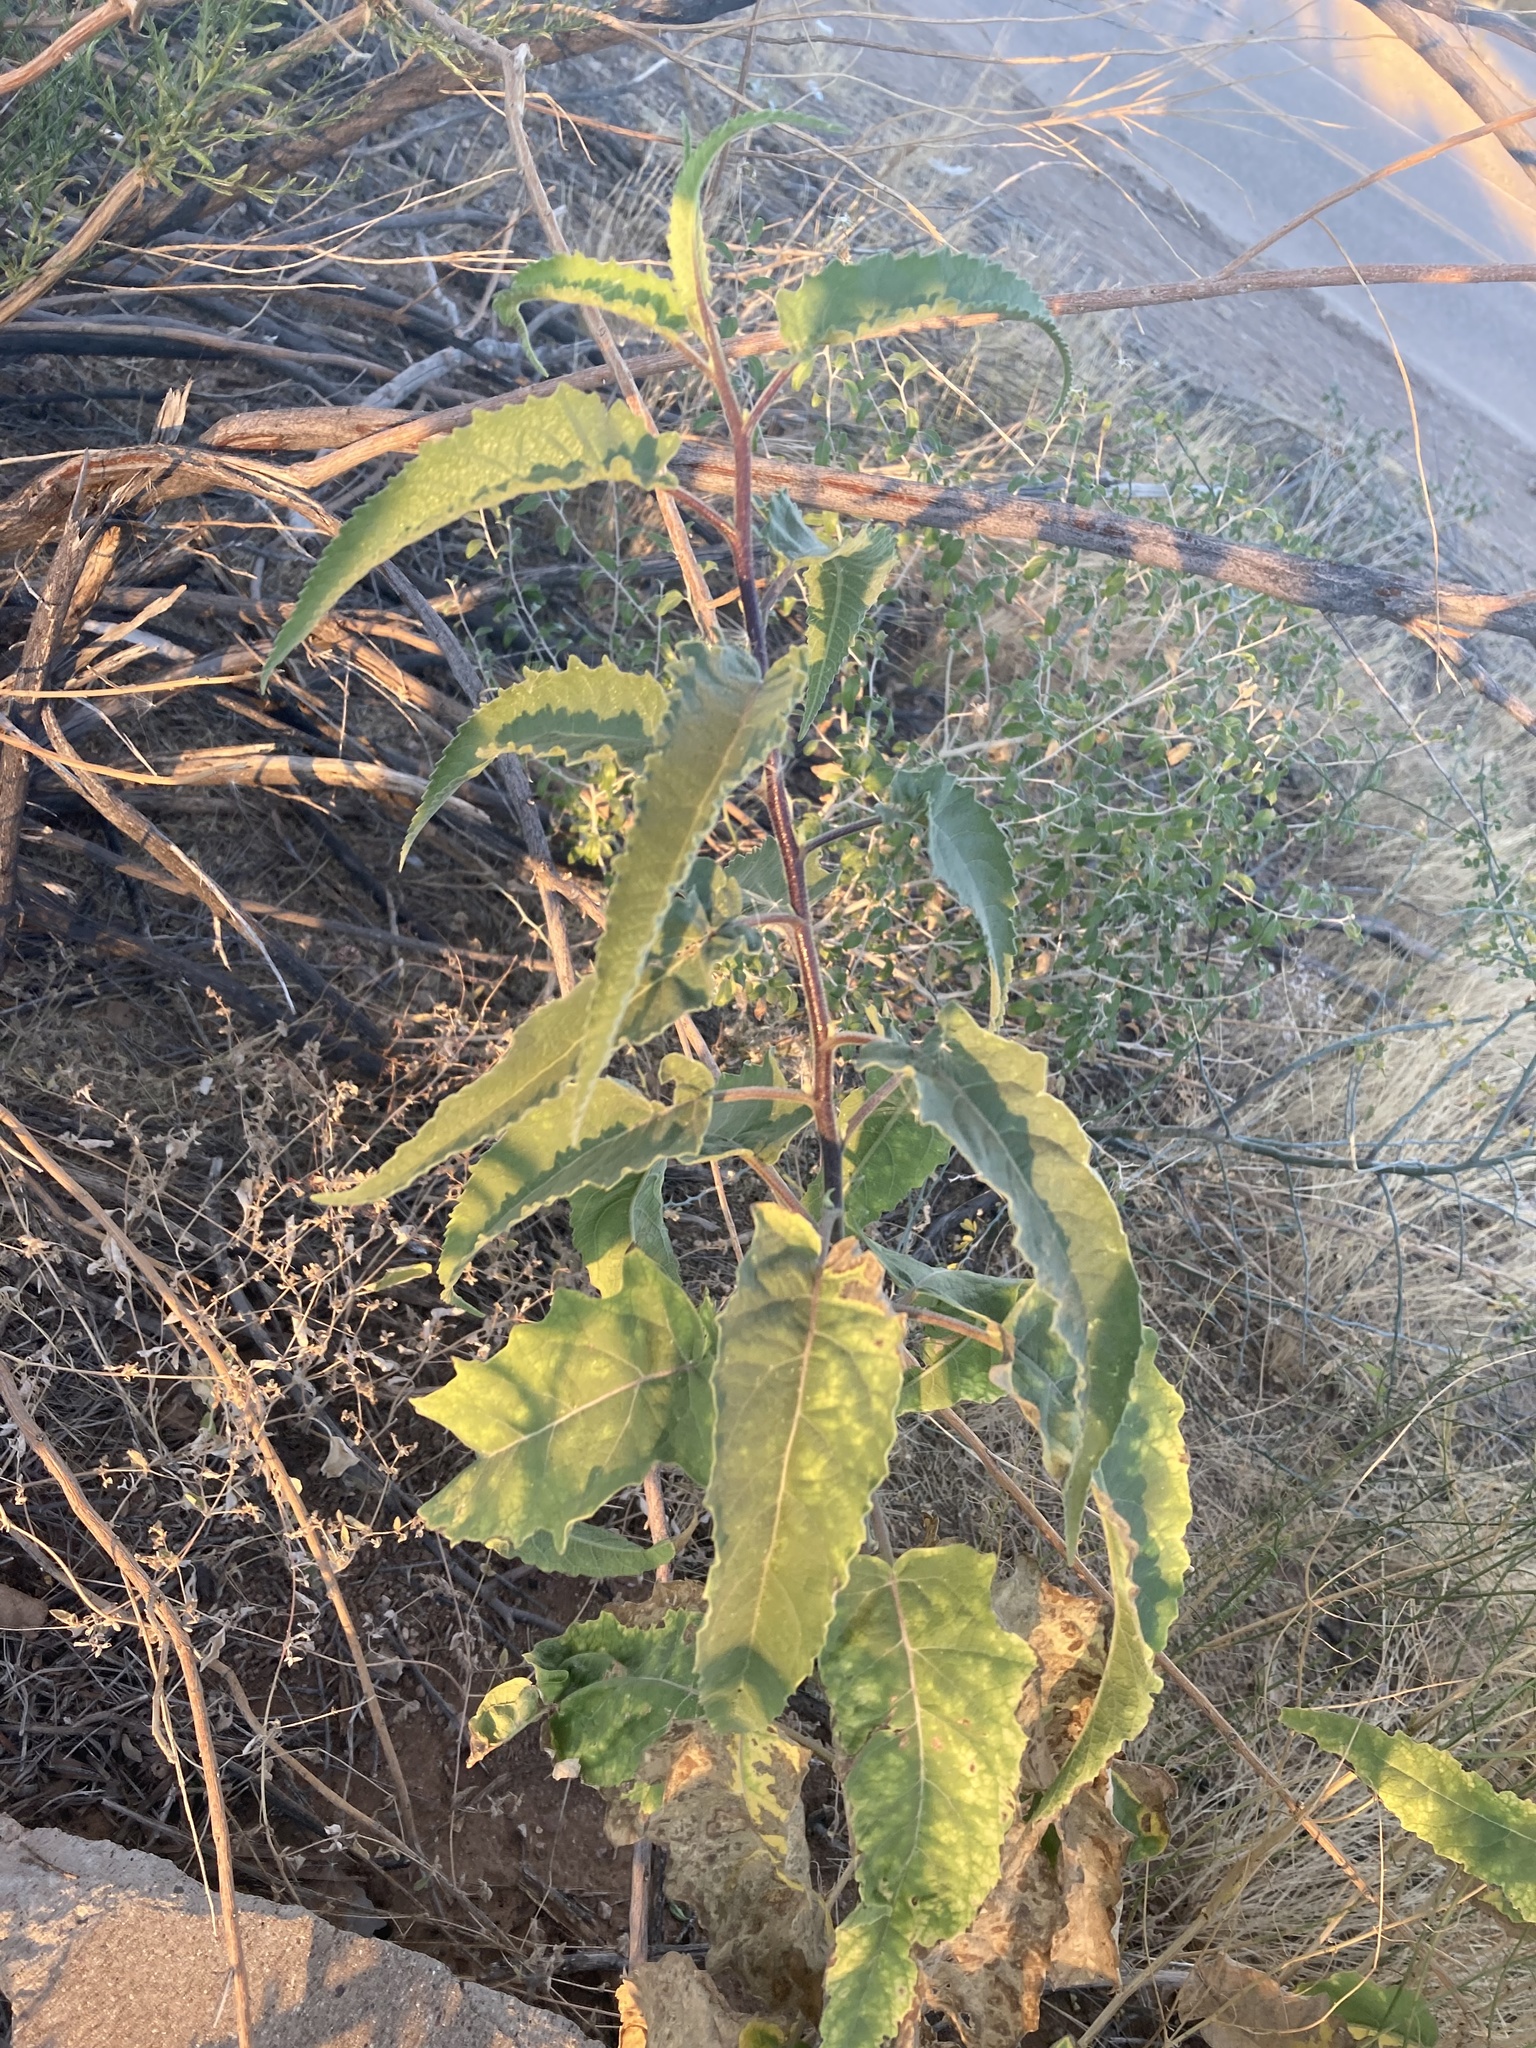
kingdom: Plantae
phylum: Tracheophyta
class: Magnoliopsida
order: Asterales
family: Asteraceae
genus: Ambrosia
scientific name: Ambrosia ambrosioides
